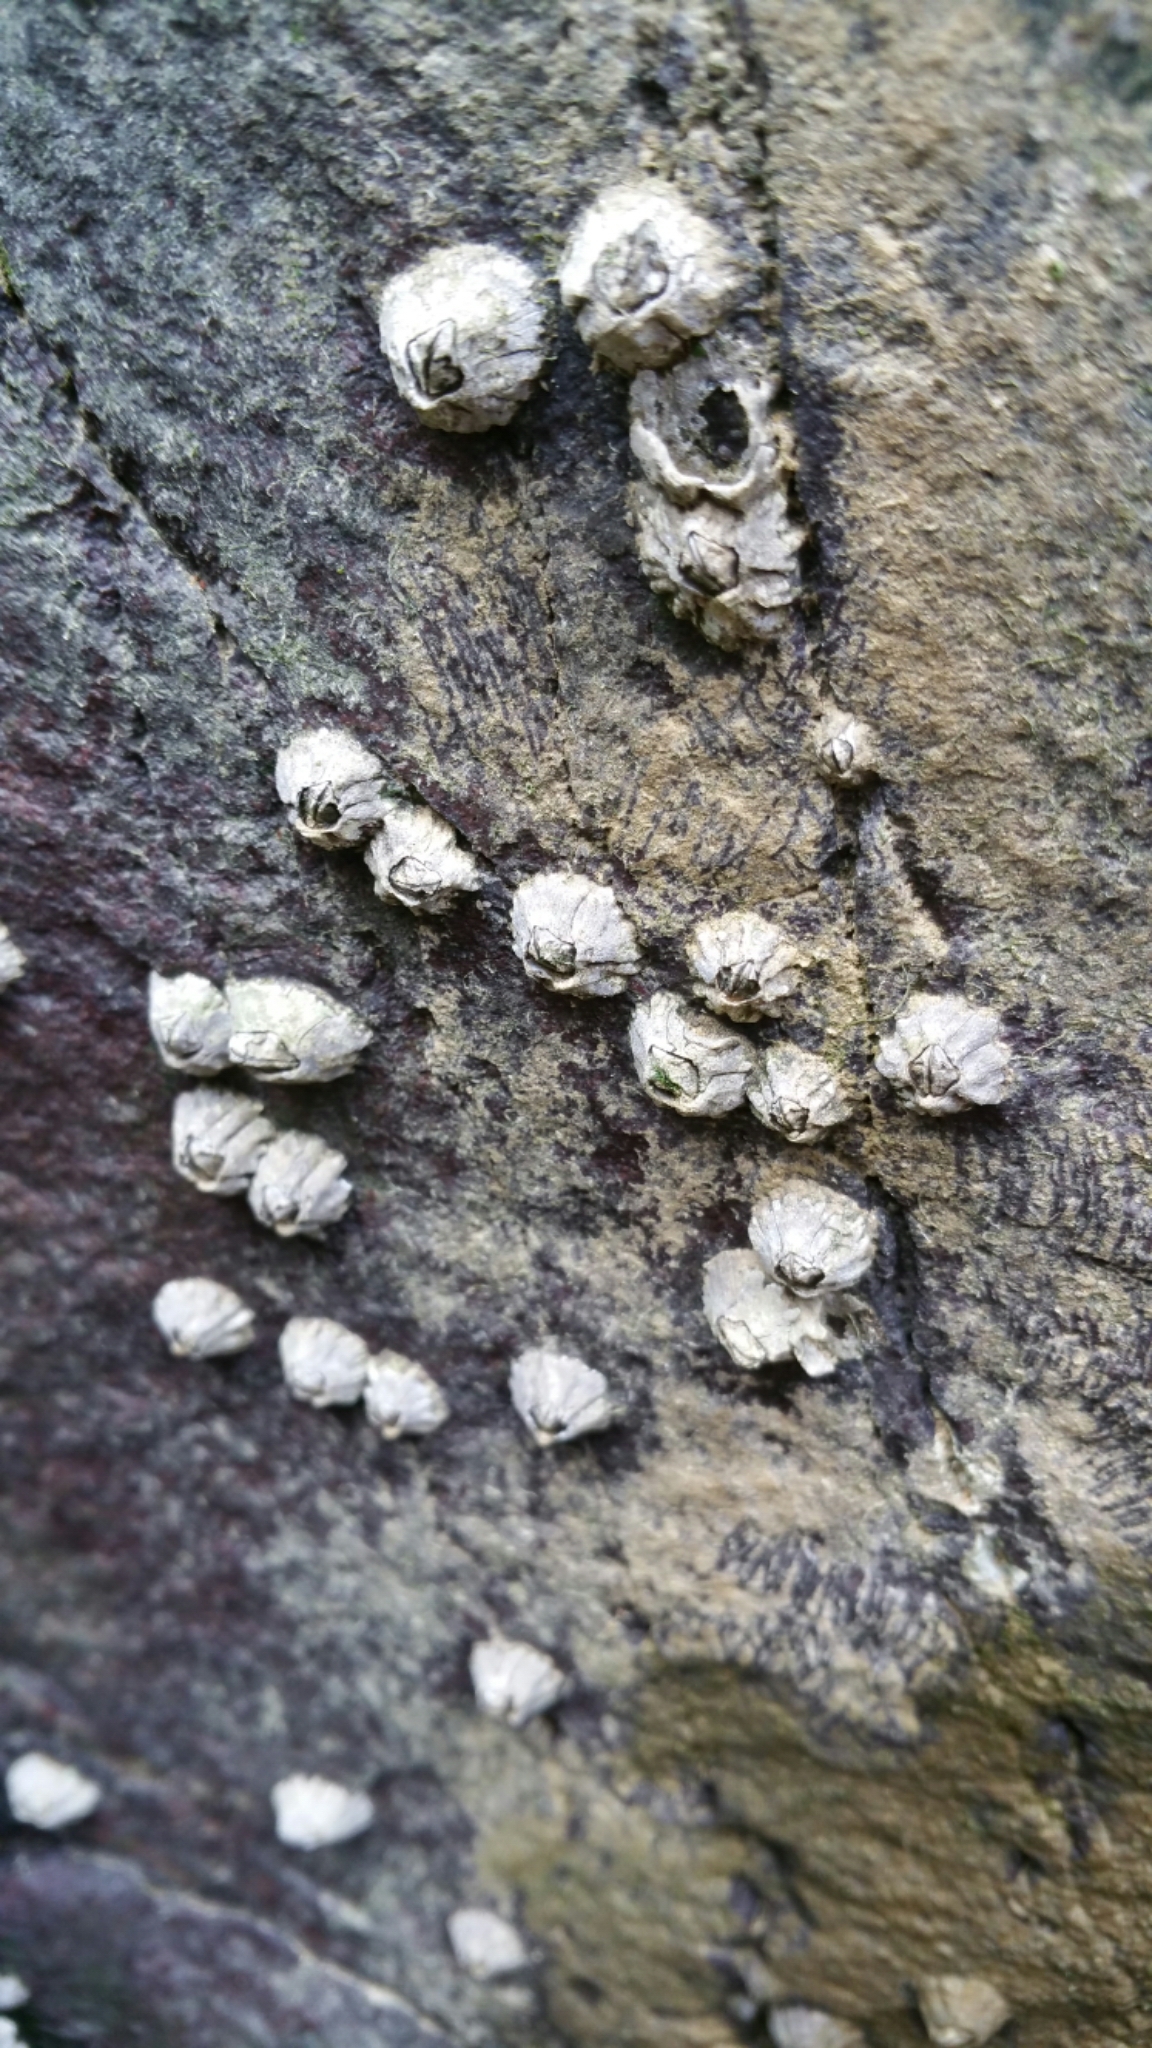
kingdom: Animalia
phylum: Arthropoda
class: Maxillopoda
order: Sessilia
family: Balanidae
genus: Balanus
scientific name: Balanus glandula
